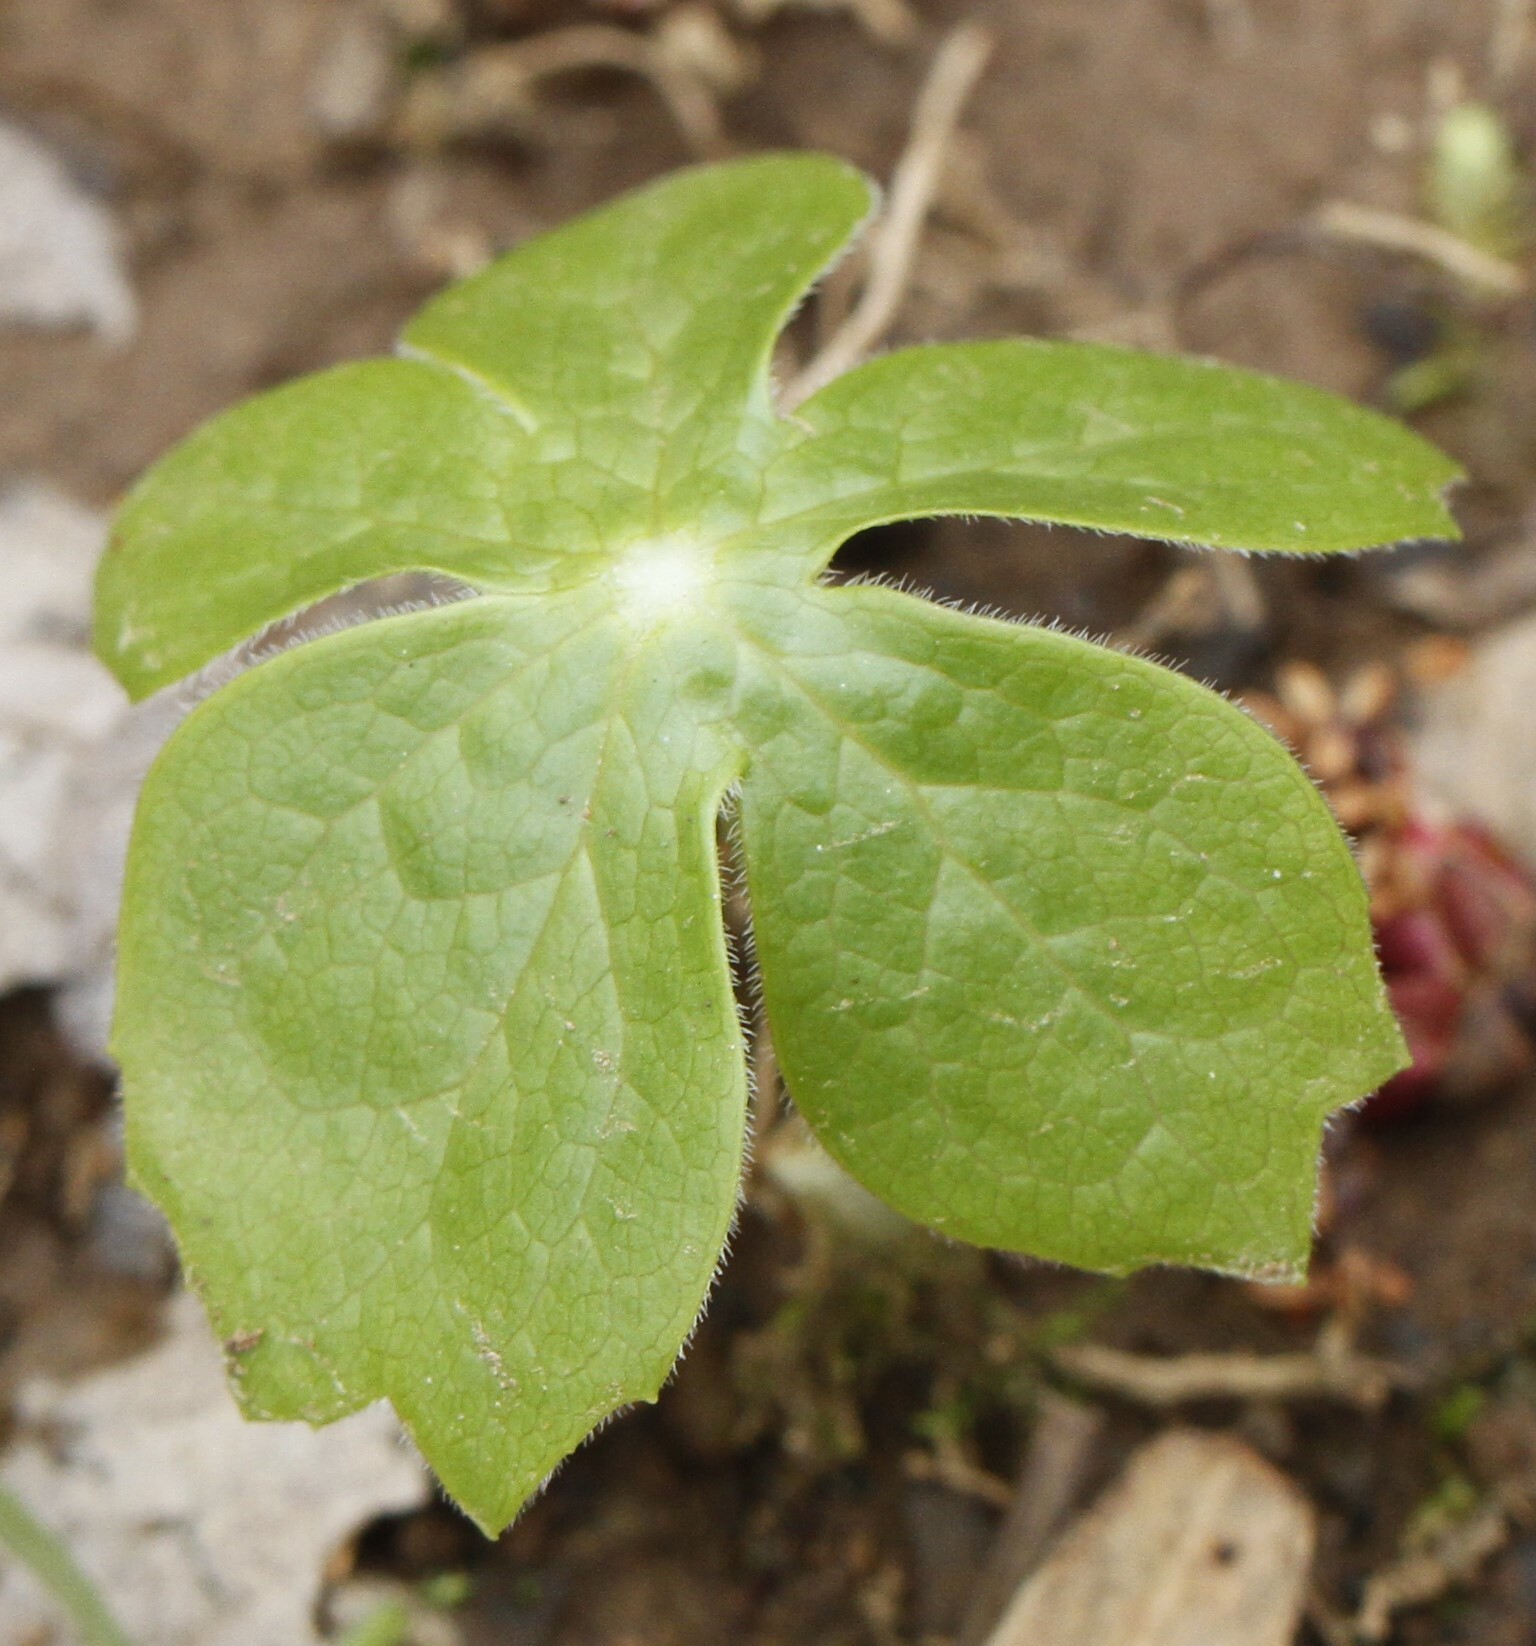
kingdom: Plantae
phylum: Tracheophyta
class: Magnoliopsida
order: Ranunculales
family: Berberidaceae
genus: Podophyllum
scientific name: Podophyllum peltatum
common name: Wild mandrake
